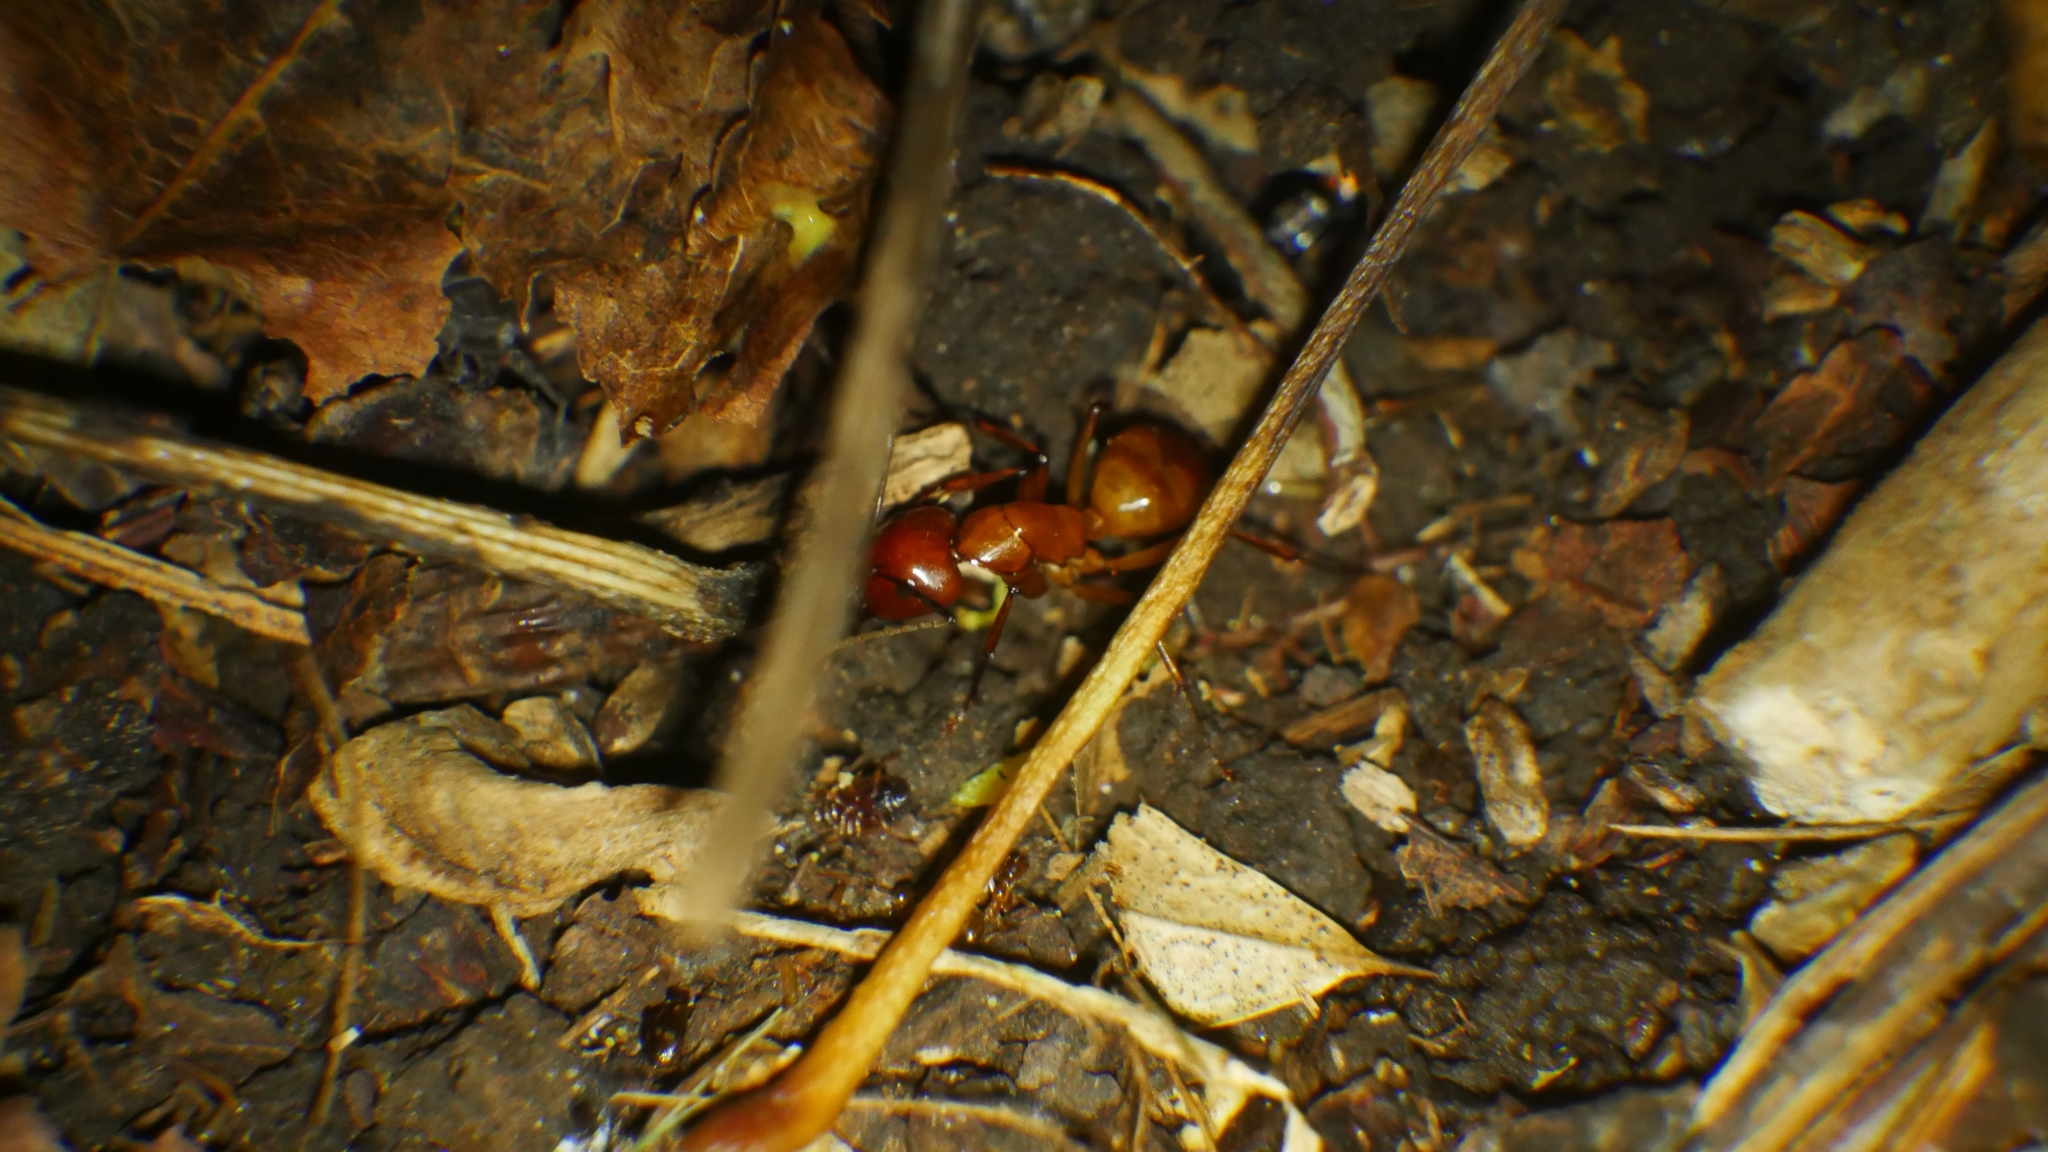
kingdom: Animalia
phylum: Arthropoda
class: Insecta
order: Hymenoptera
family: Formicidae
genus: Camponotus
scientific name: Camponotus castaneus
